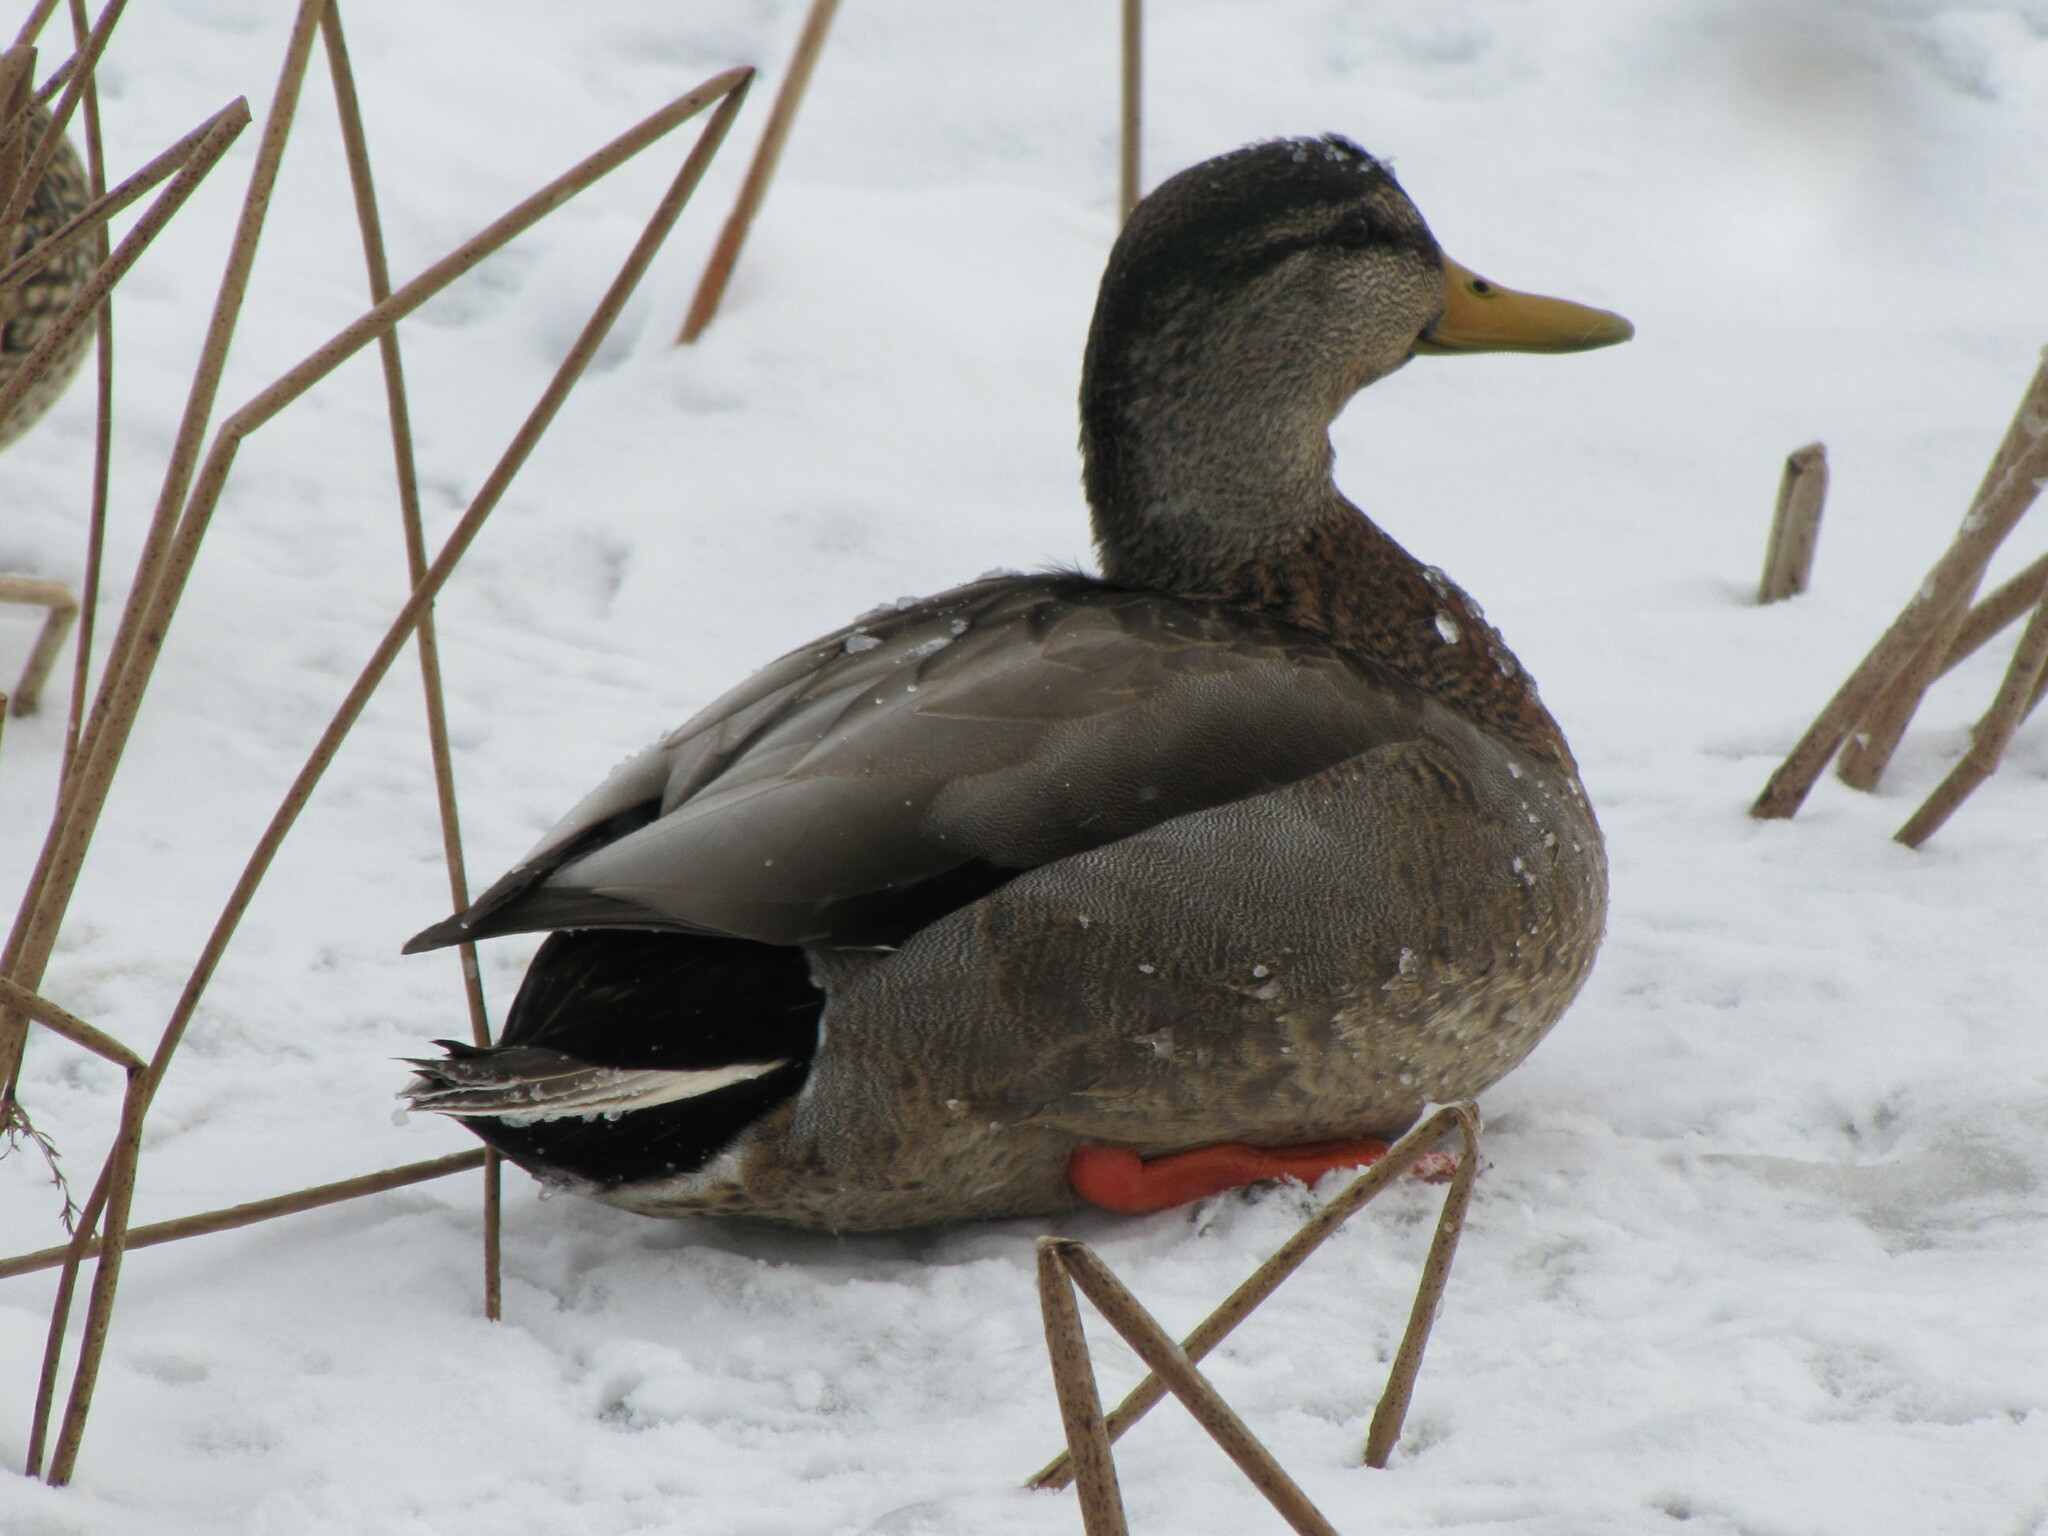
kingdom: Animalia
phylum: Chordata
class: Aves
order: Anseriformes
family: Anatidae
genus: Anas
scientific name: Anas
